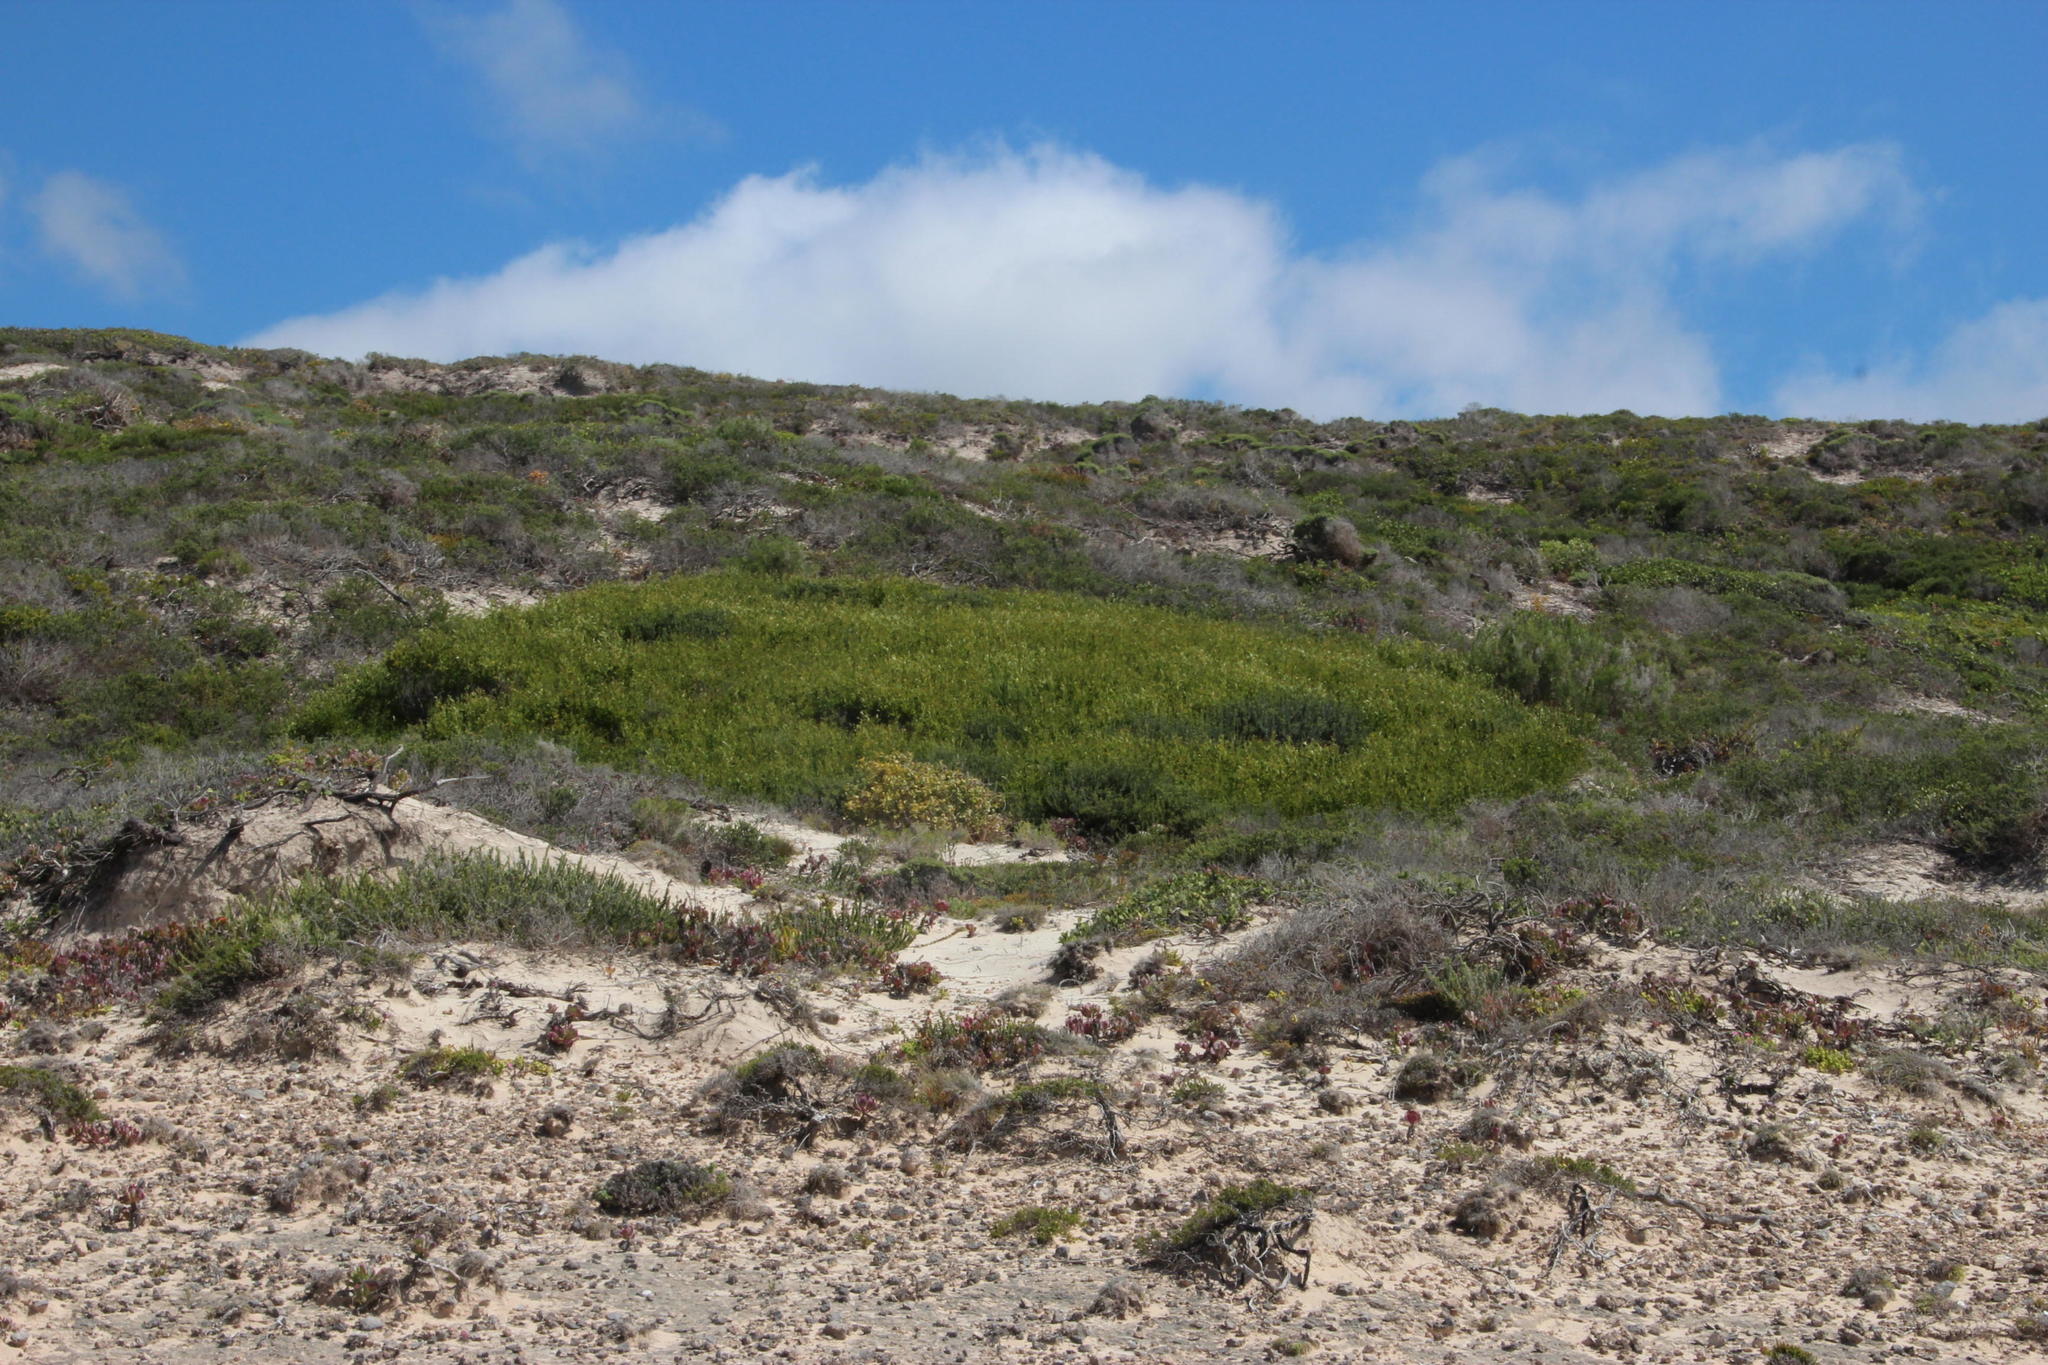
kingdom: Plantae
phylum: Tracheophyta
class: Magnoliopsida
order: Fabales
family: Fabaceae
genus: Acacia
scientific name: Acacia cyclops
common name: Coastal wattle
